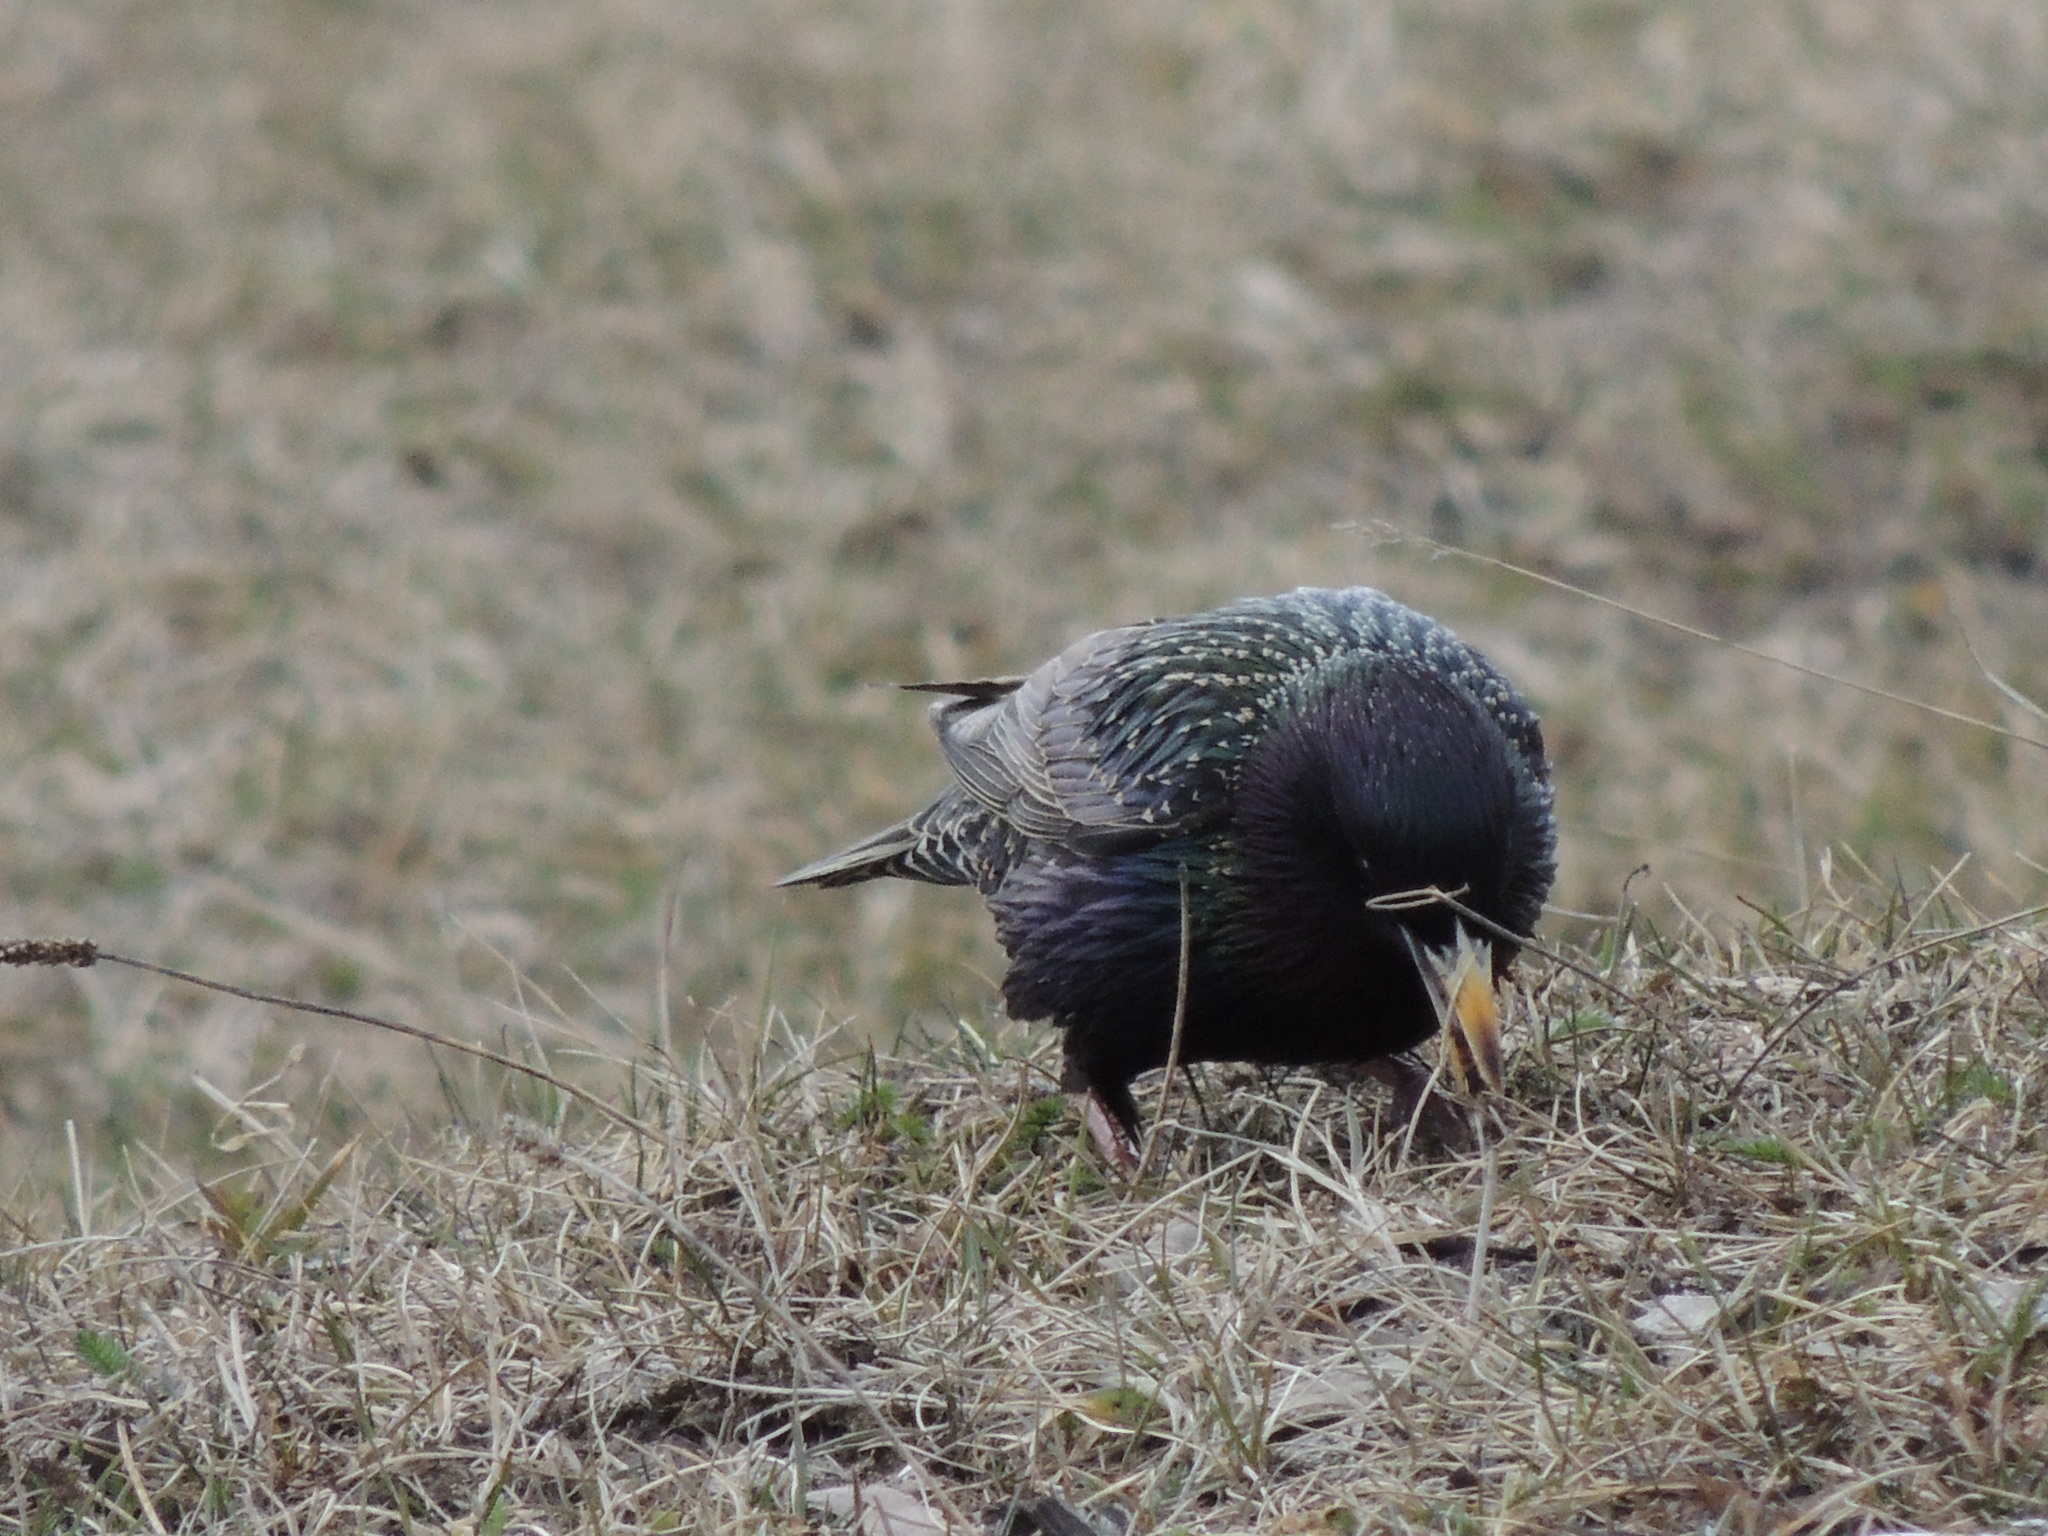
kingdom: Animalia
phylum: Chordata
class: Aves
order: Passeriformes
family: Sturnidae
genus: Sturnus
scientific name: Sturnus vulgaris
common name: Common starling
